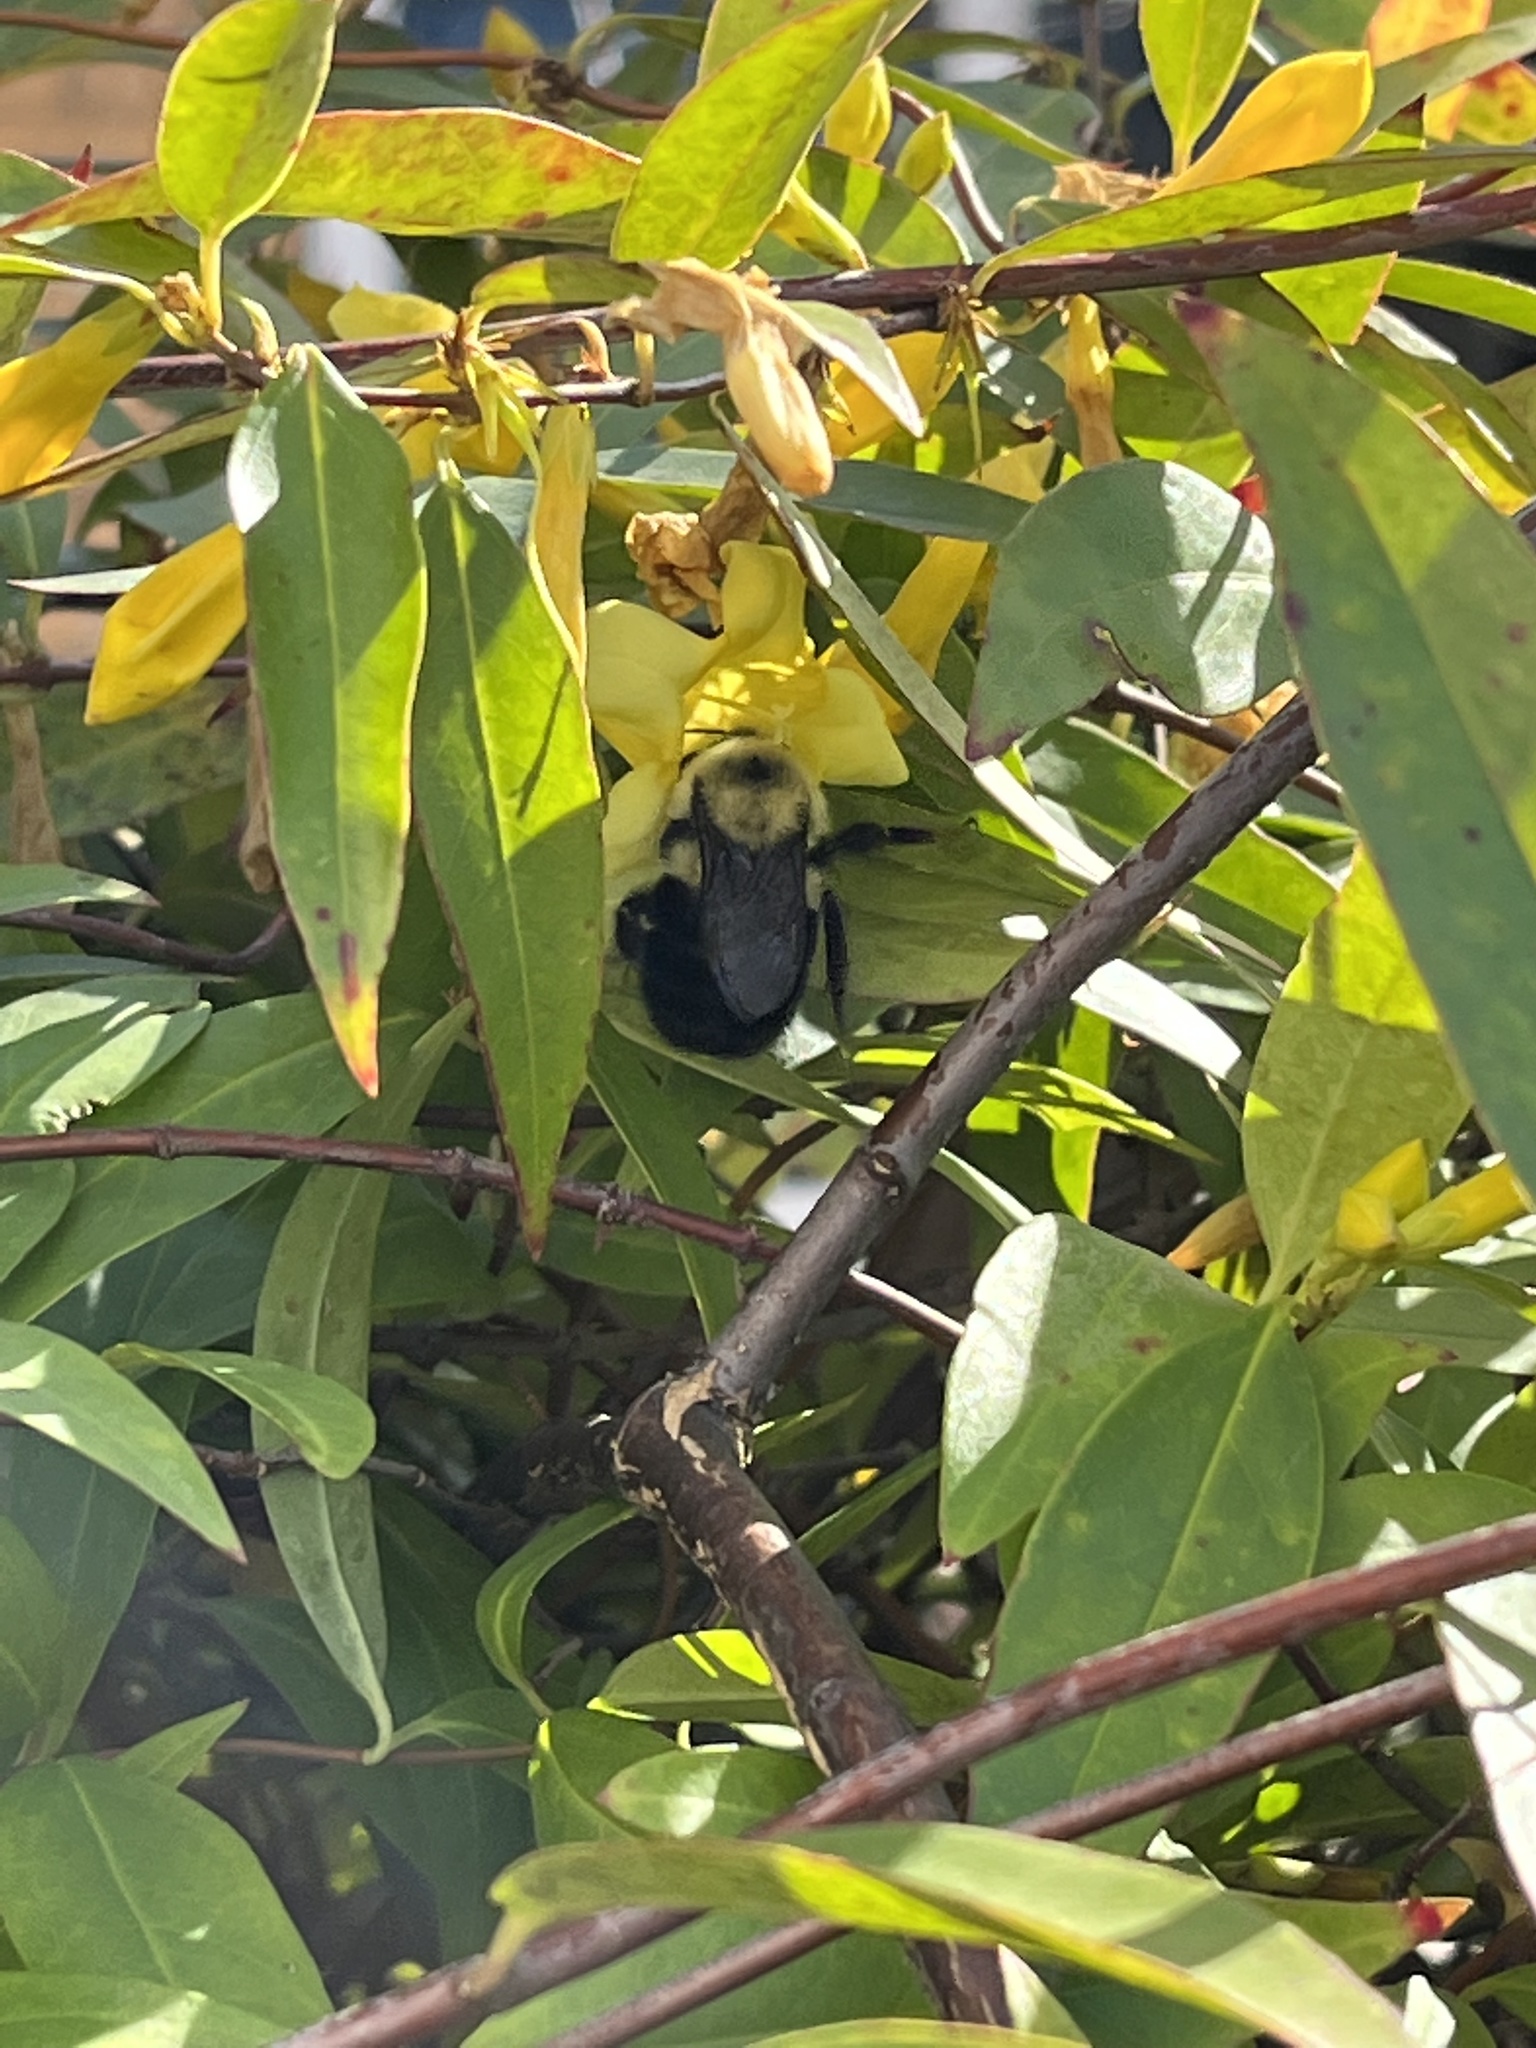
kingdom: Animalia
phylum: Arthropoda
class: Insecta
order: Hymenoptera
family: Apidae
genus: Bombus
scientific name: Bombus bimaculatus
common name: Two-spotted bumble bee
